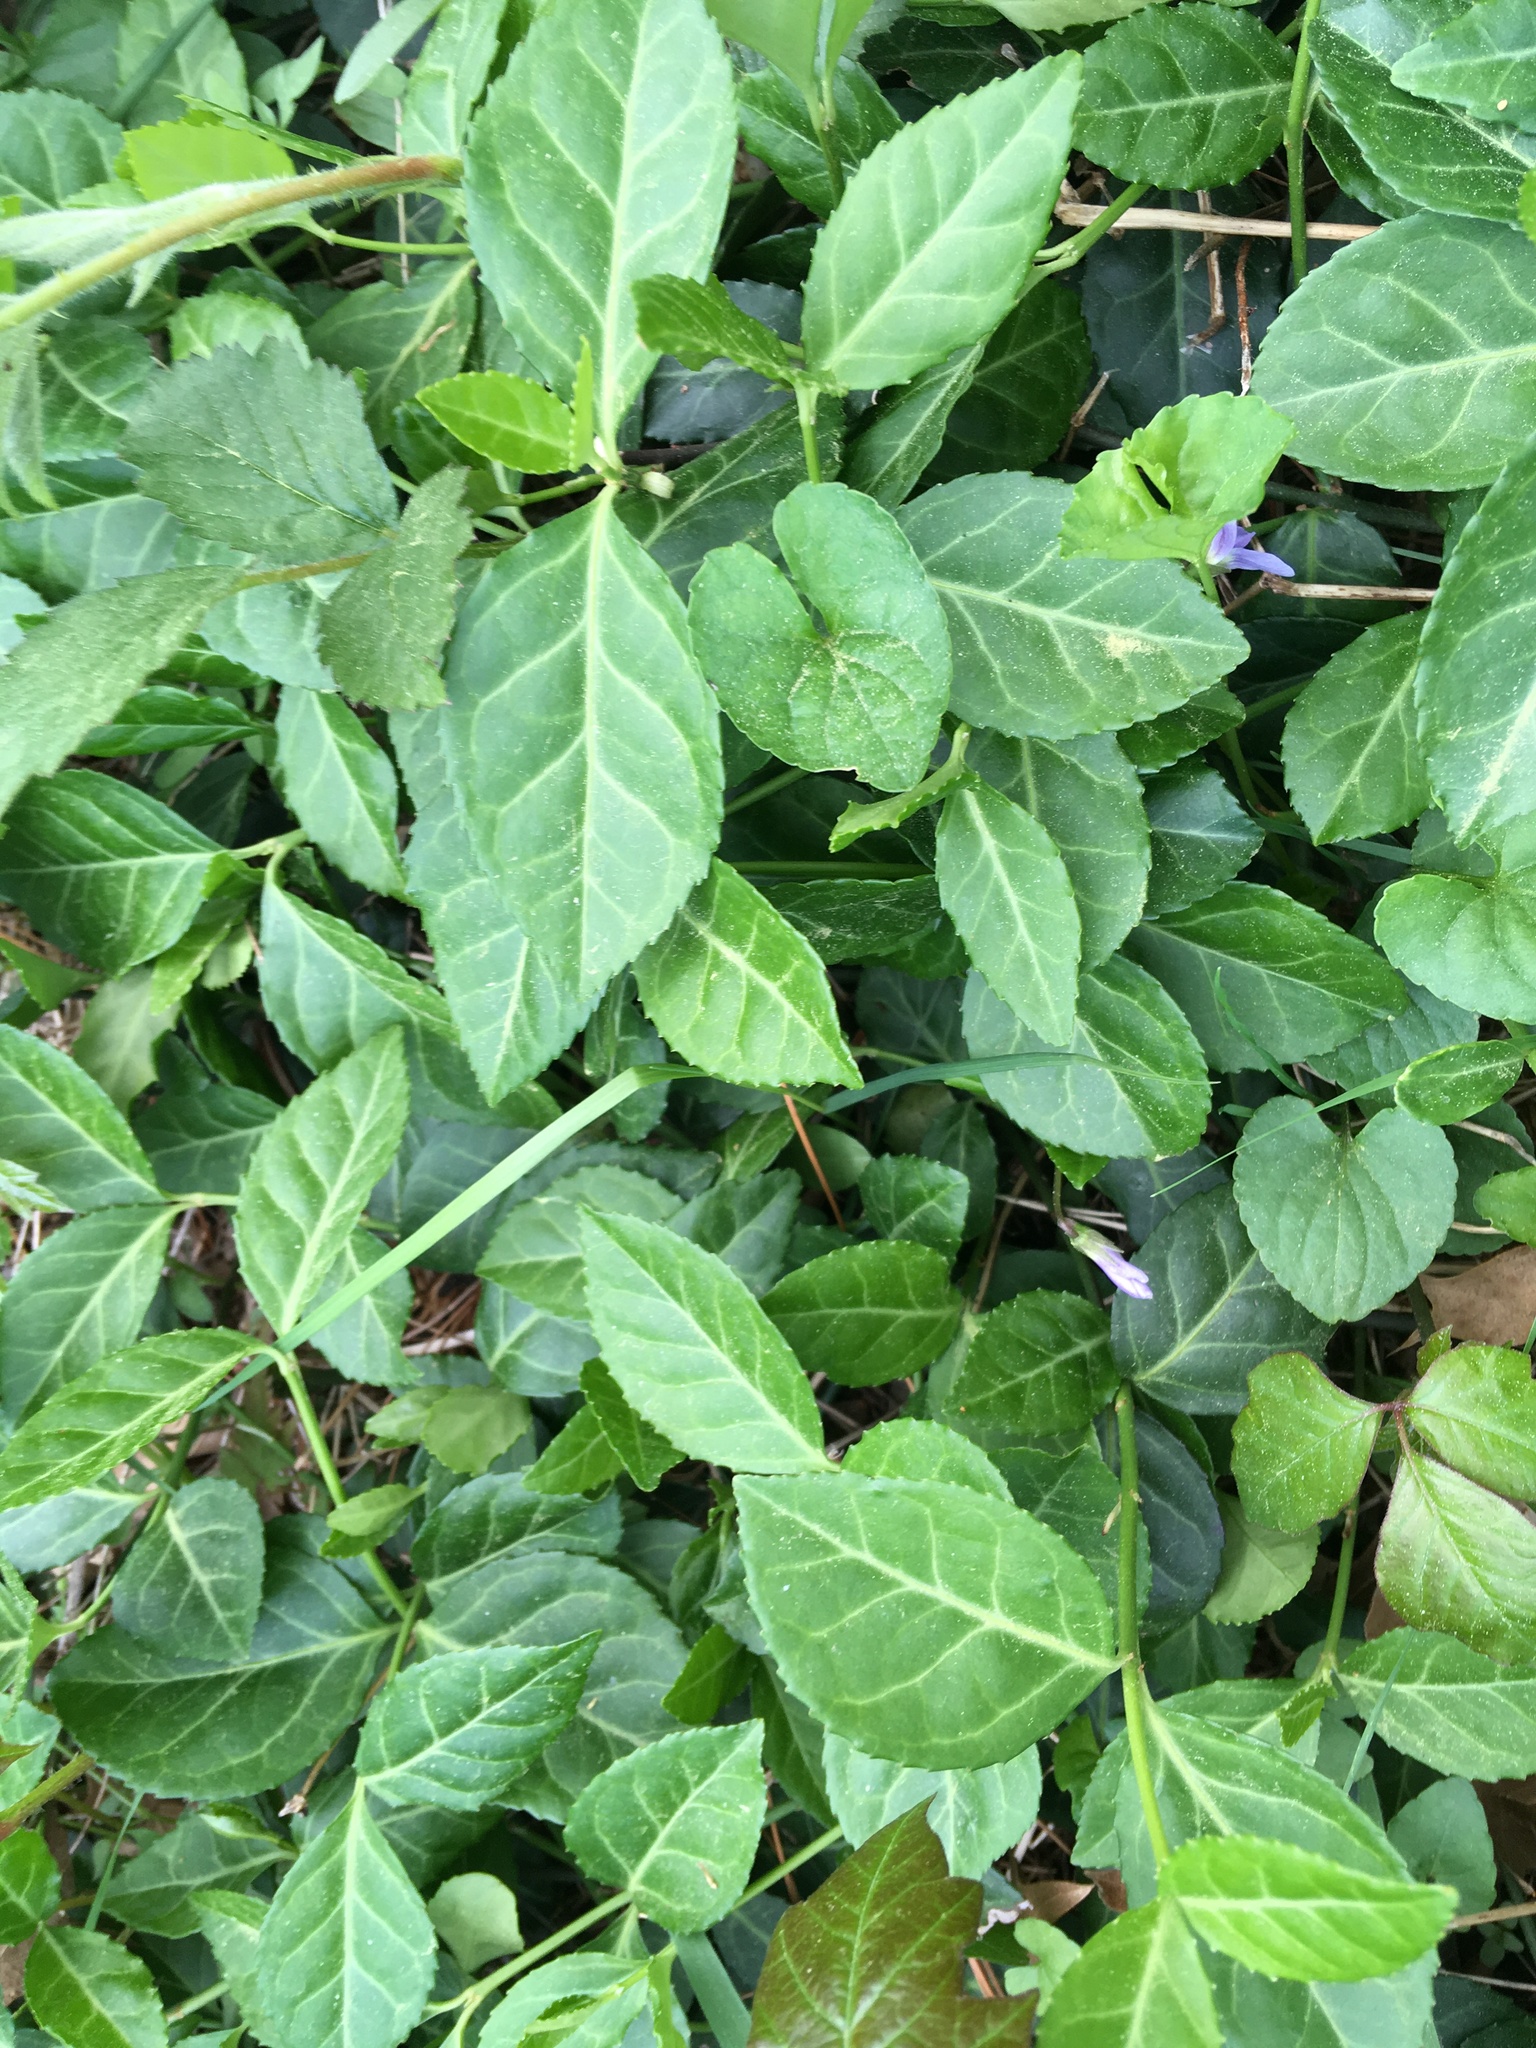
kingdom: Plantae
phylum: Tracheophyta
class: Magnoliopsida
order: Celastrales
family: Celastraceae
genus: Euonymus
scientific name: Euonymus fortunei
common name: Climbing euonymus
